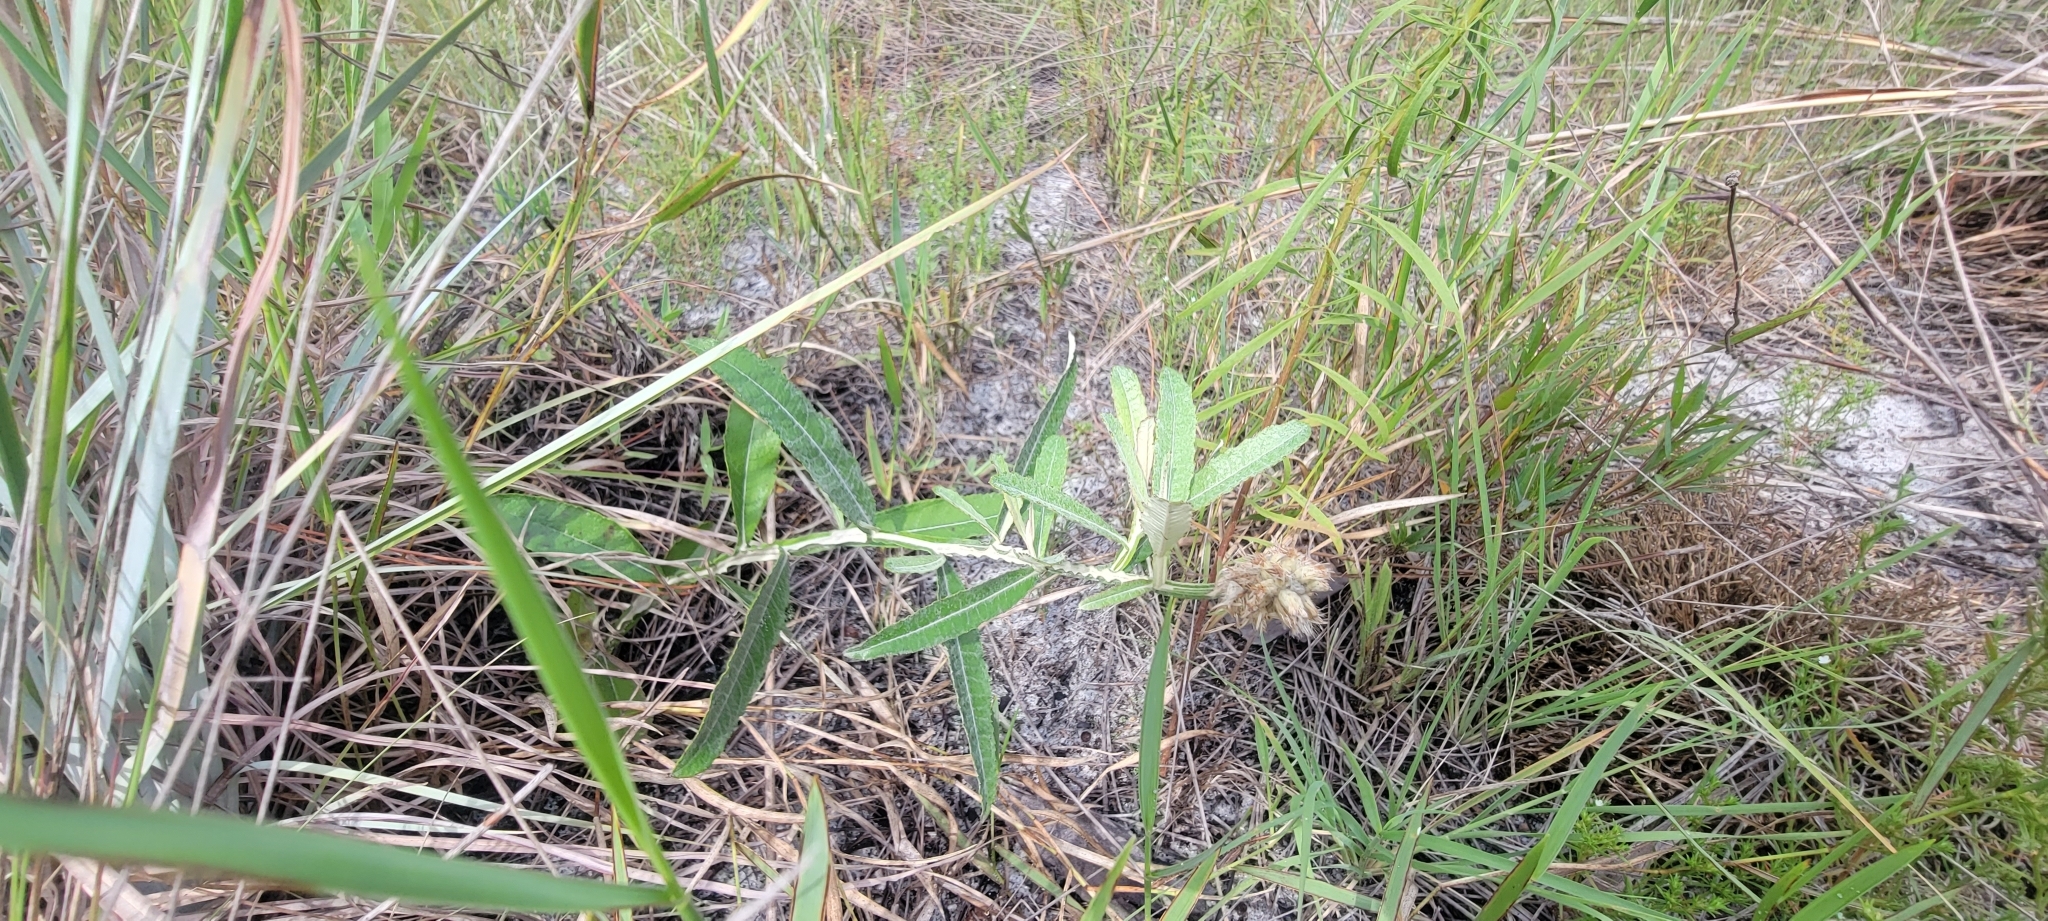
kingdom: Plantae
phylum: Tracheophyta
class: Magnoliopsida
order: Asterales
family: Asteraceae
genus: Pterocaulon
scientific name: Pterocaulon pycnostachyum
